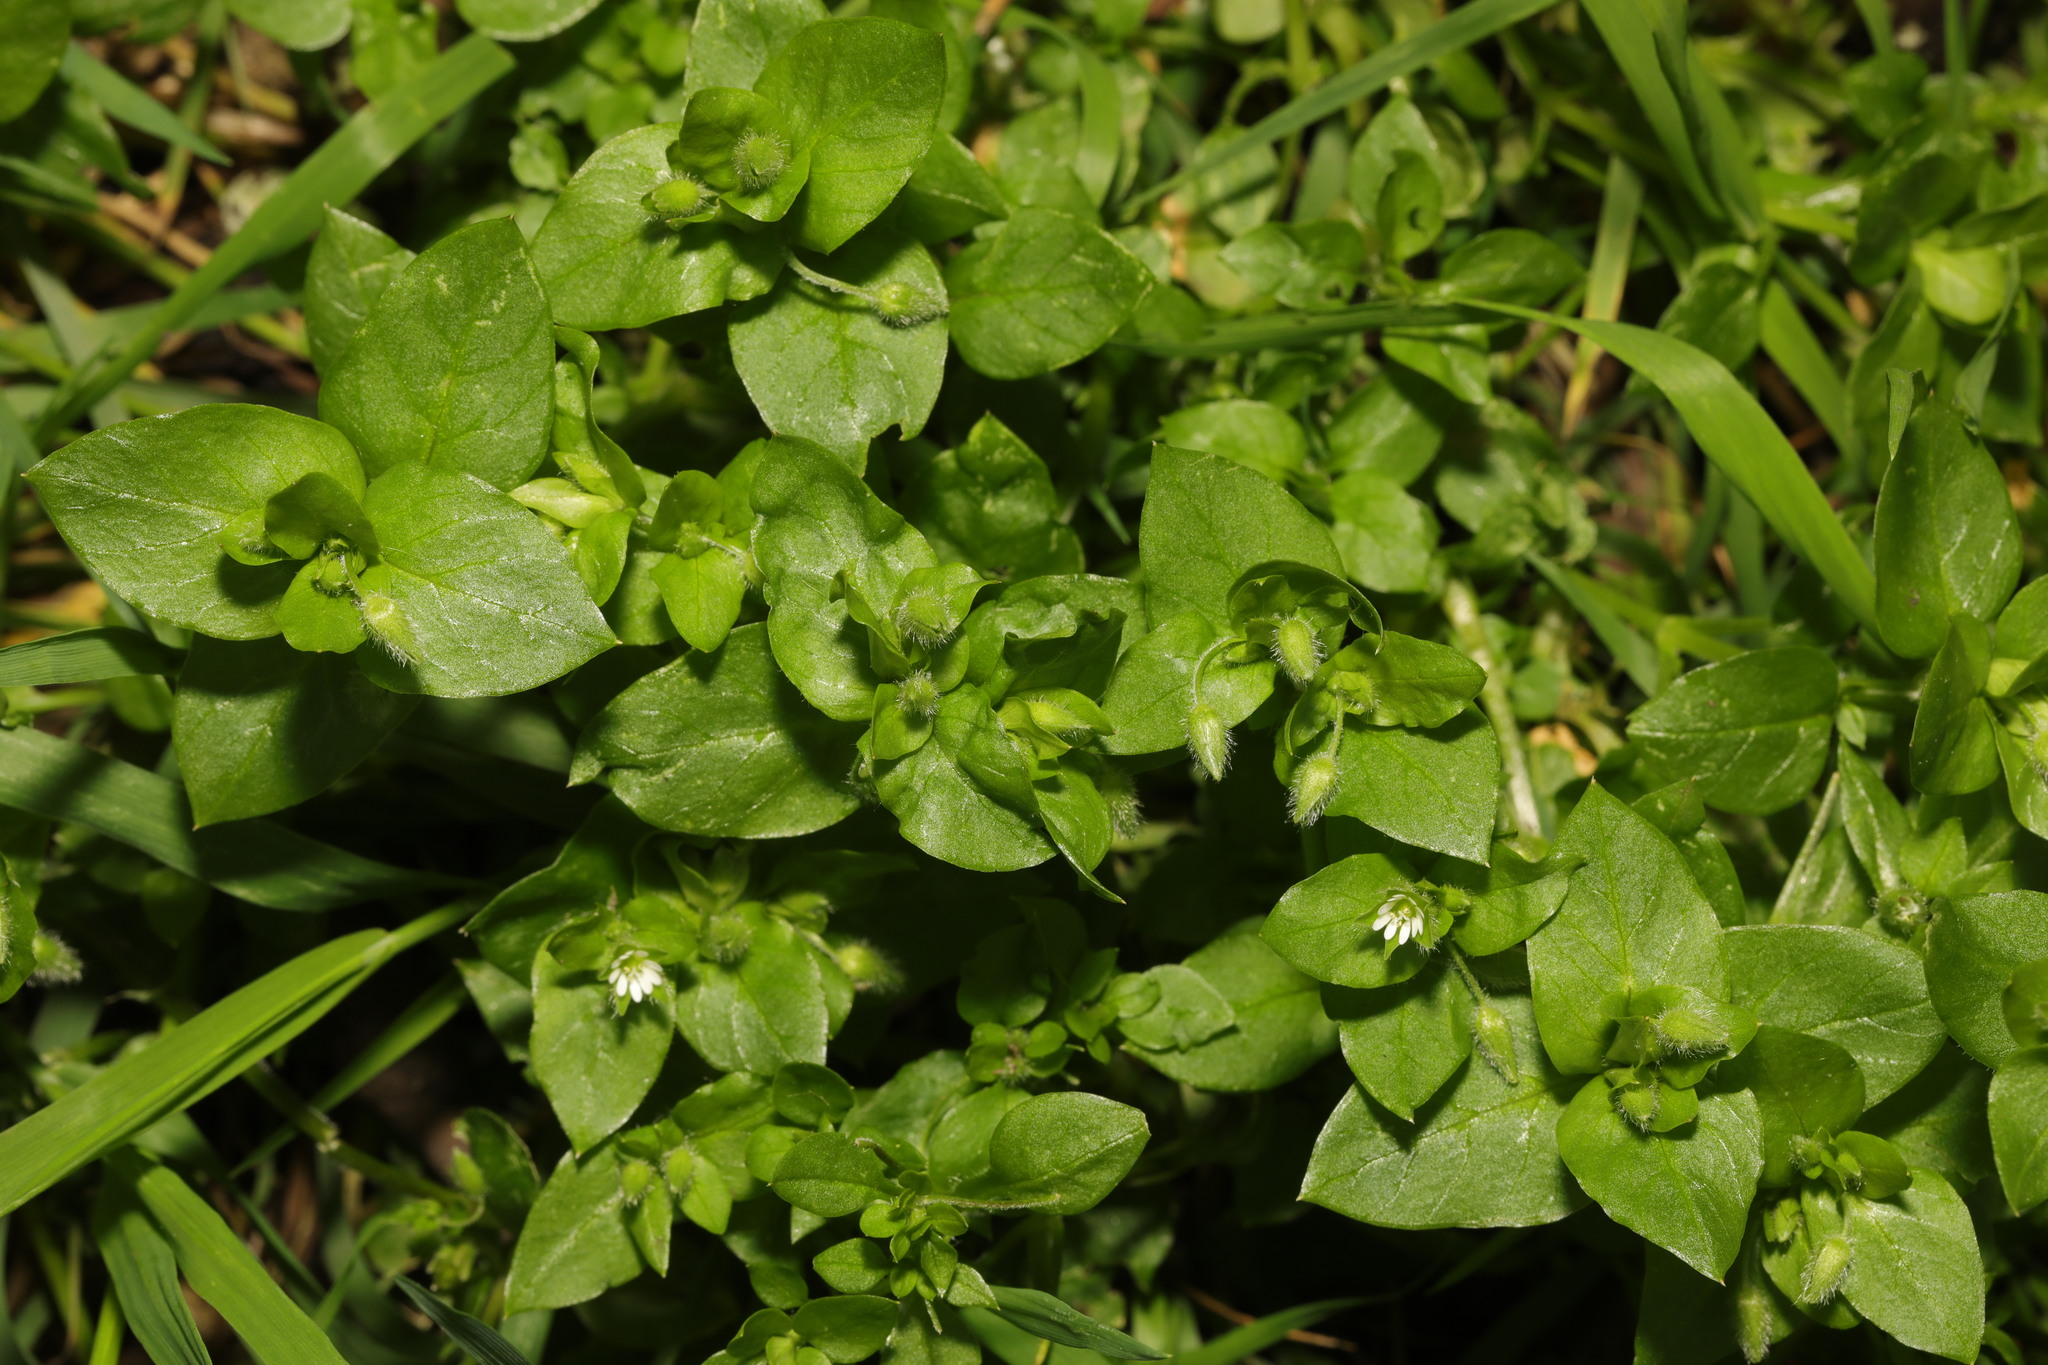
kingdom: Plantae
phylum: Tracheophyta
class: Magnoliopsida
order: Caryophyllales
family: Caryophyllaceae
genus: Stellaria
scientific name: Stellaria media
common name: Common chickweed
